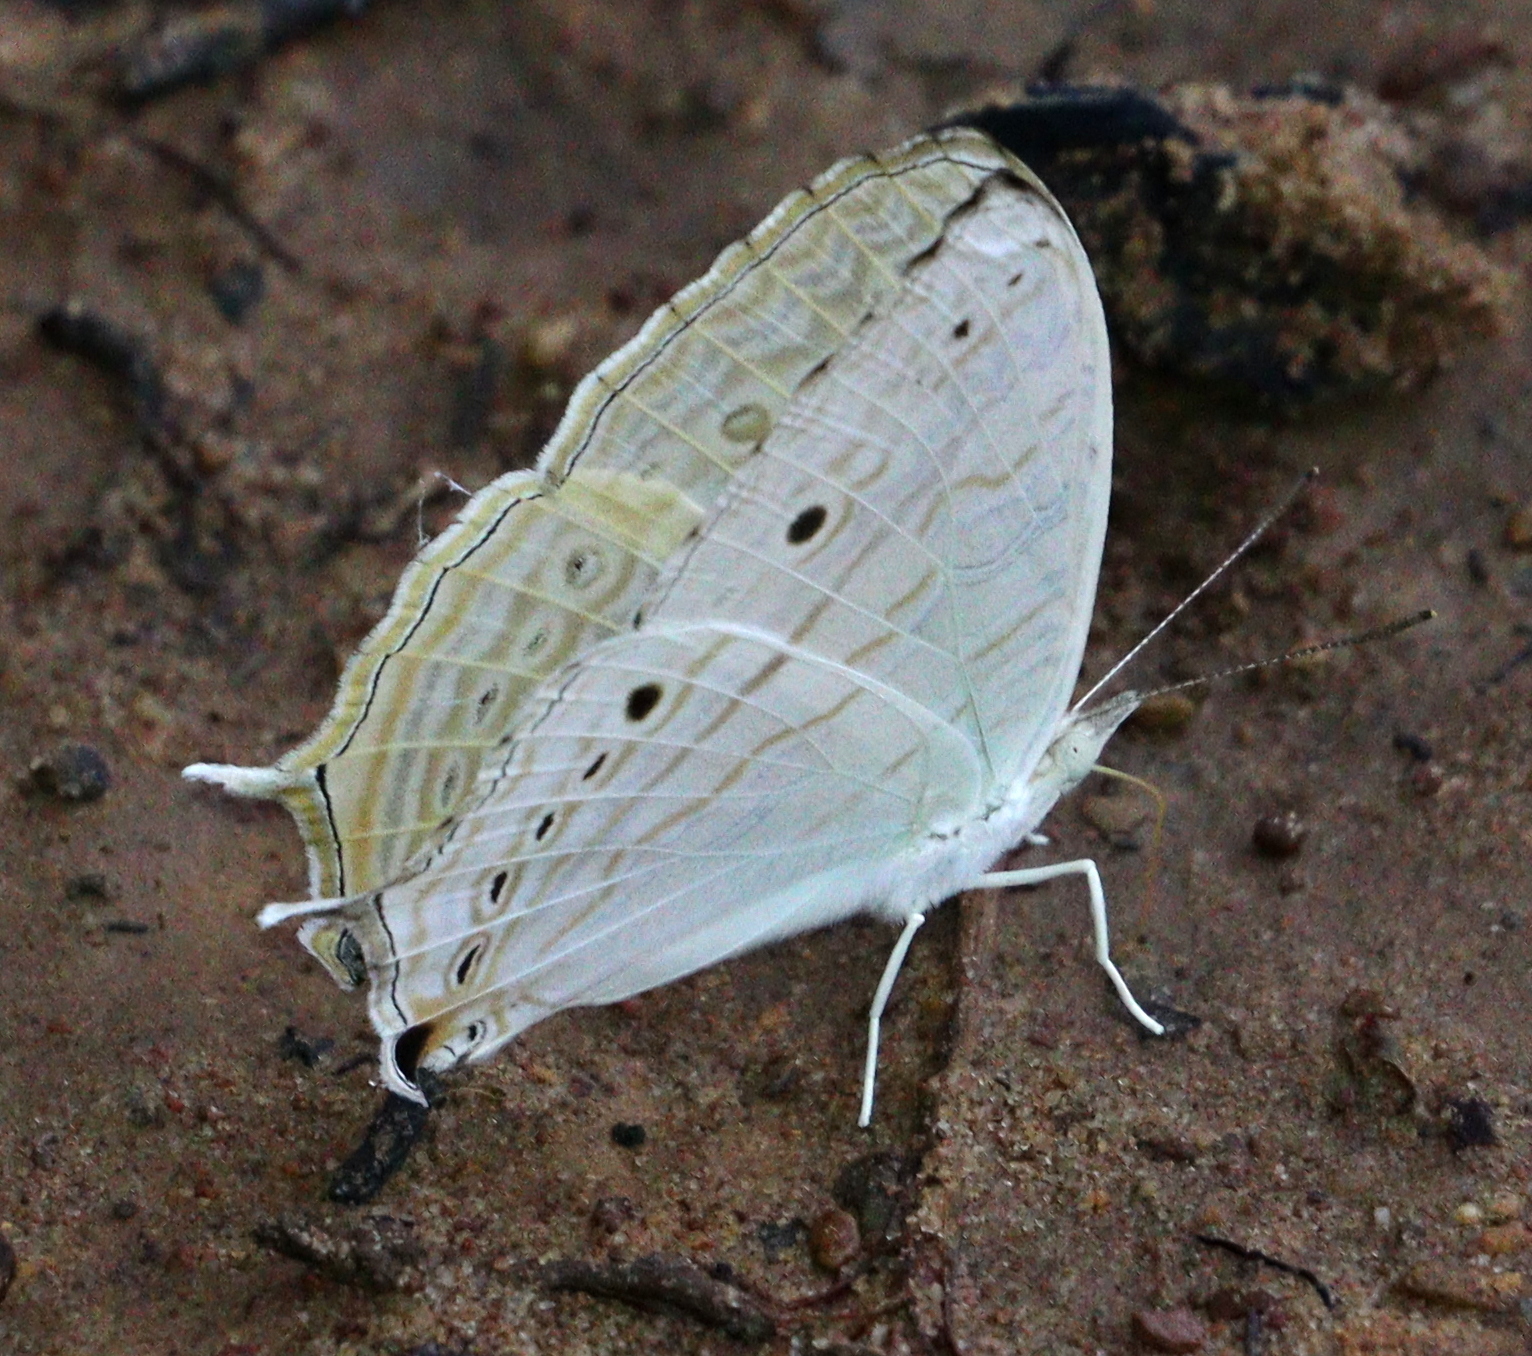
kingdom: Animalia
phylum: Arthropoda
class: Insecta
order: Lepidoptera
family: Nymphalidae
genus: Cyrestis
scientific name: Cyrestis cocles
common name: Marbled map
